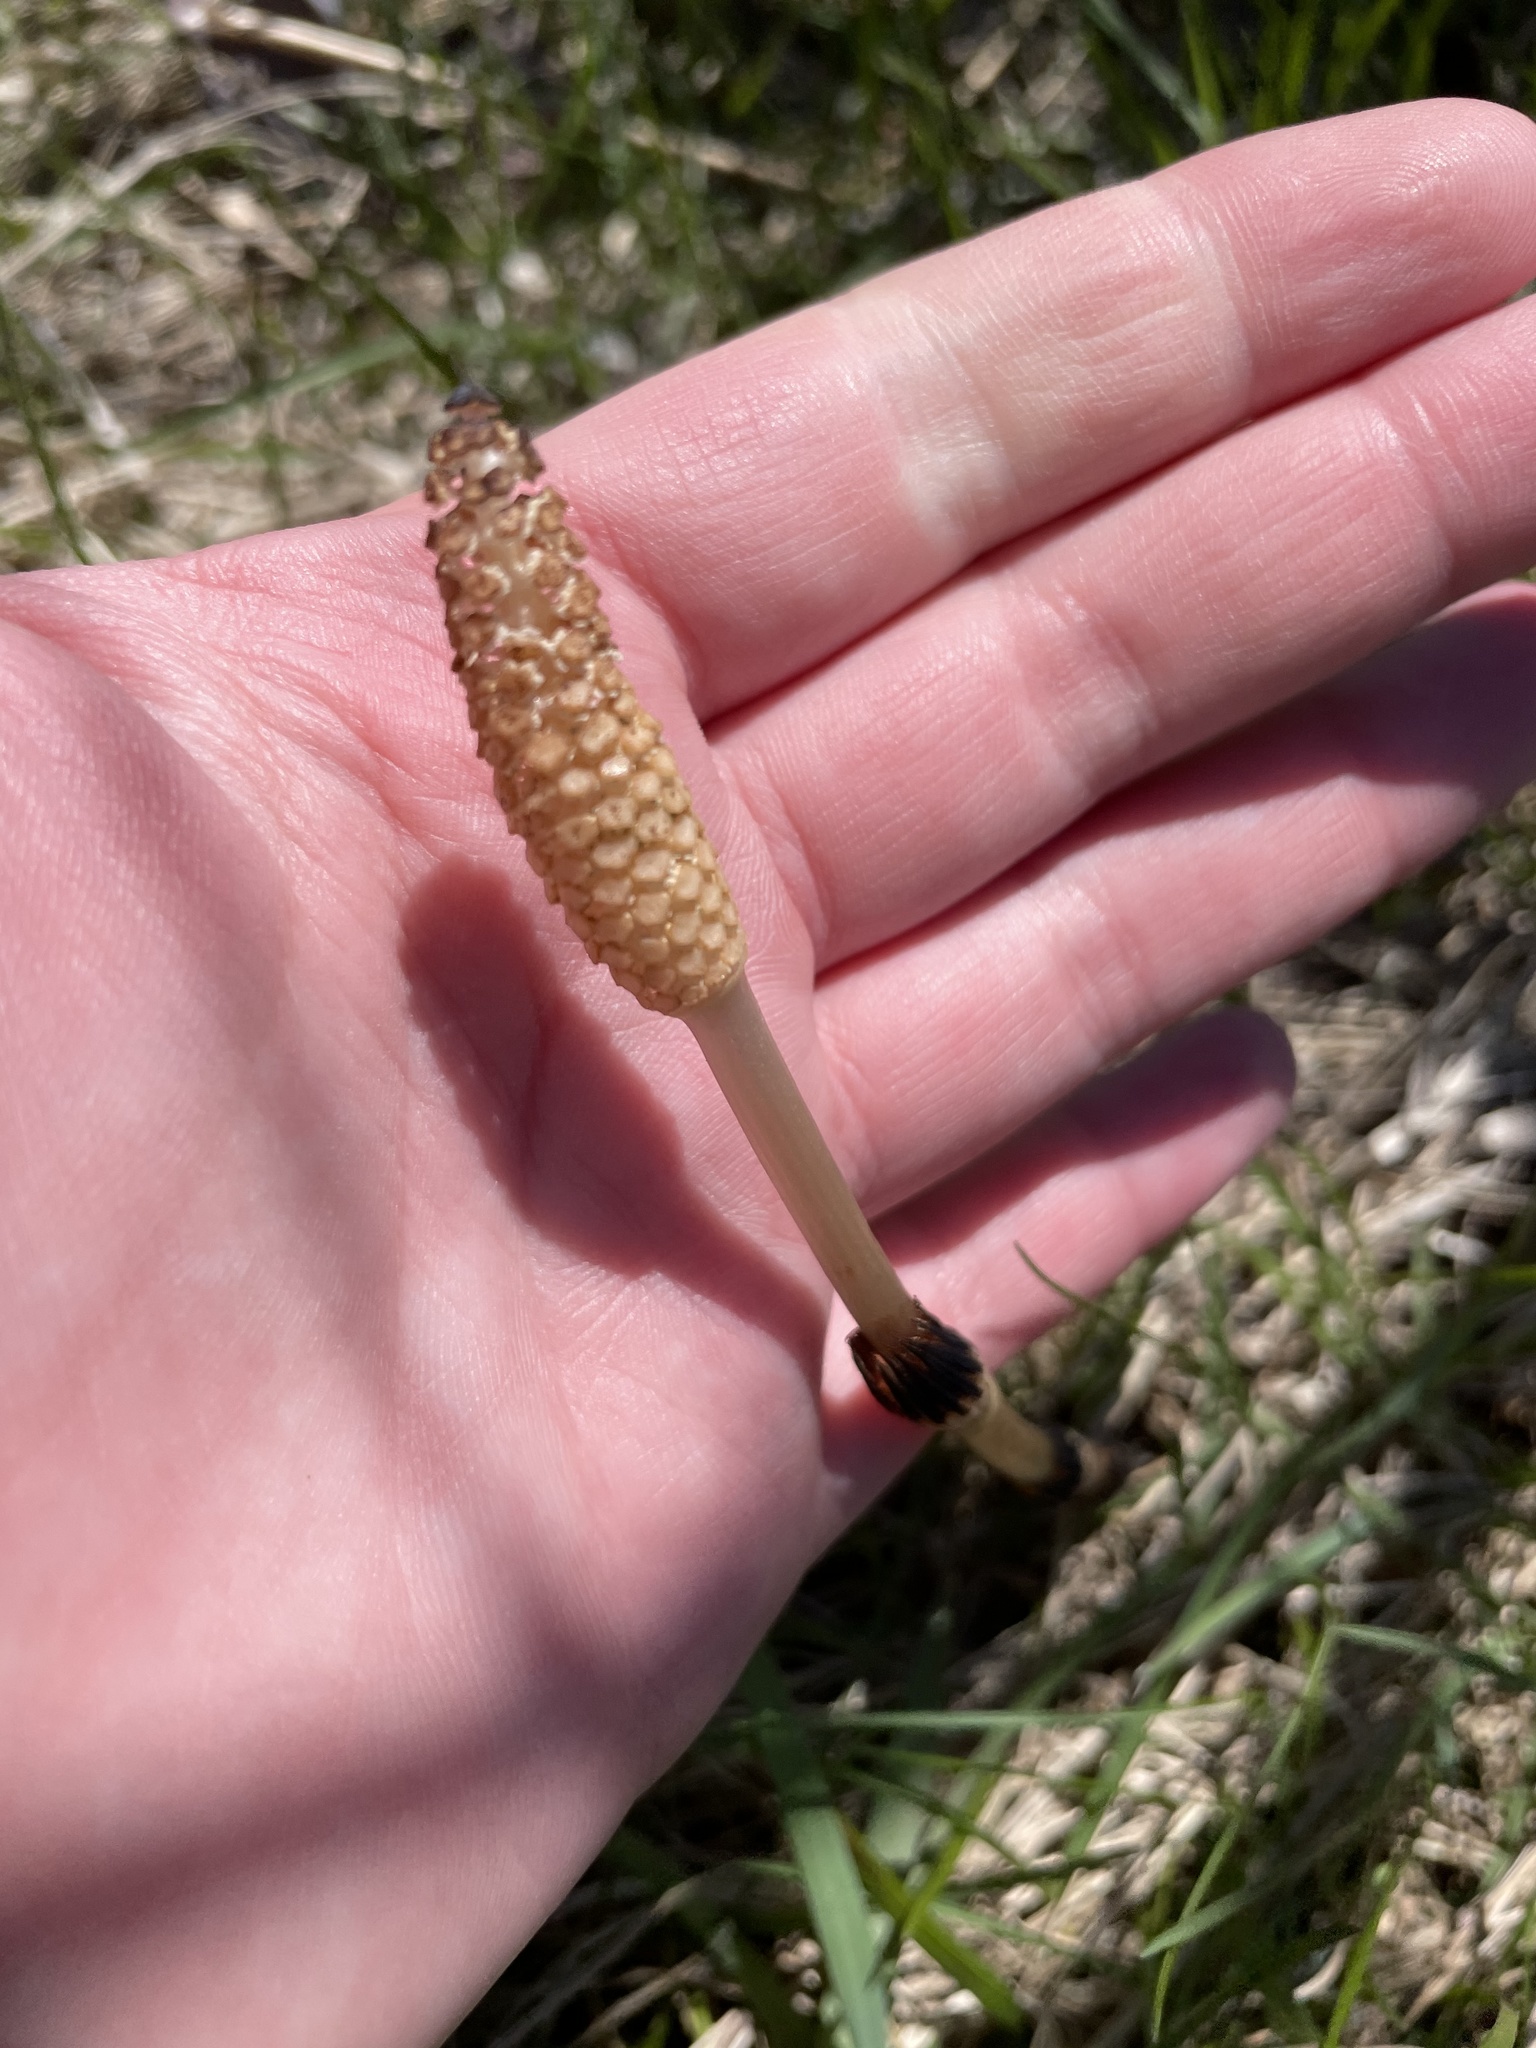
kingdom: Plantae
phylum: Tracheophyta
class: Polypodiopsida
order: Equisetales
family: Equisetaceae
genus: Equisetum
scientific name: Equisetum arvense
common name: Field horsetail
